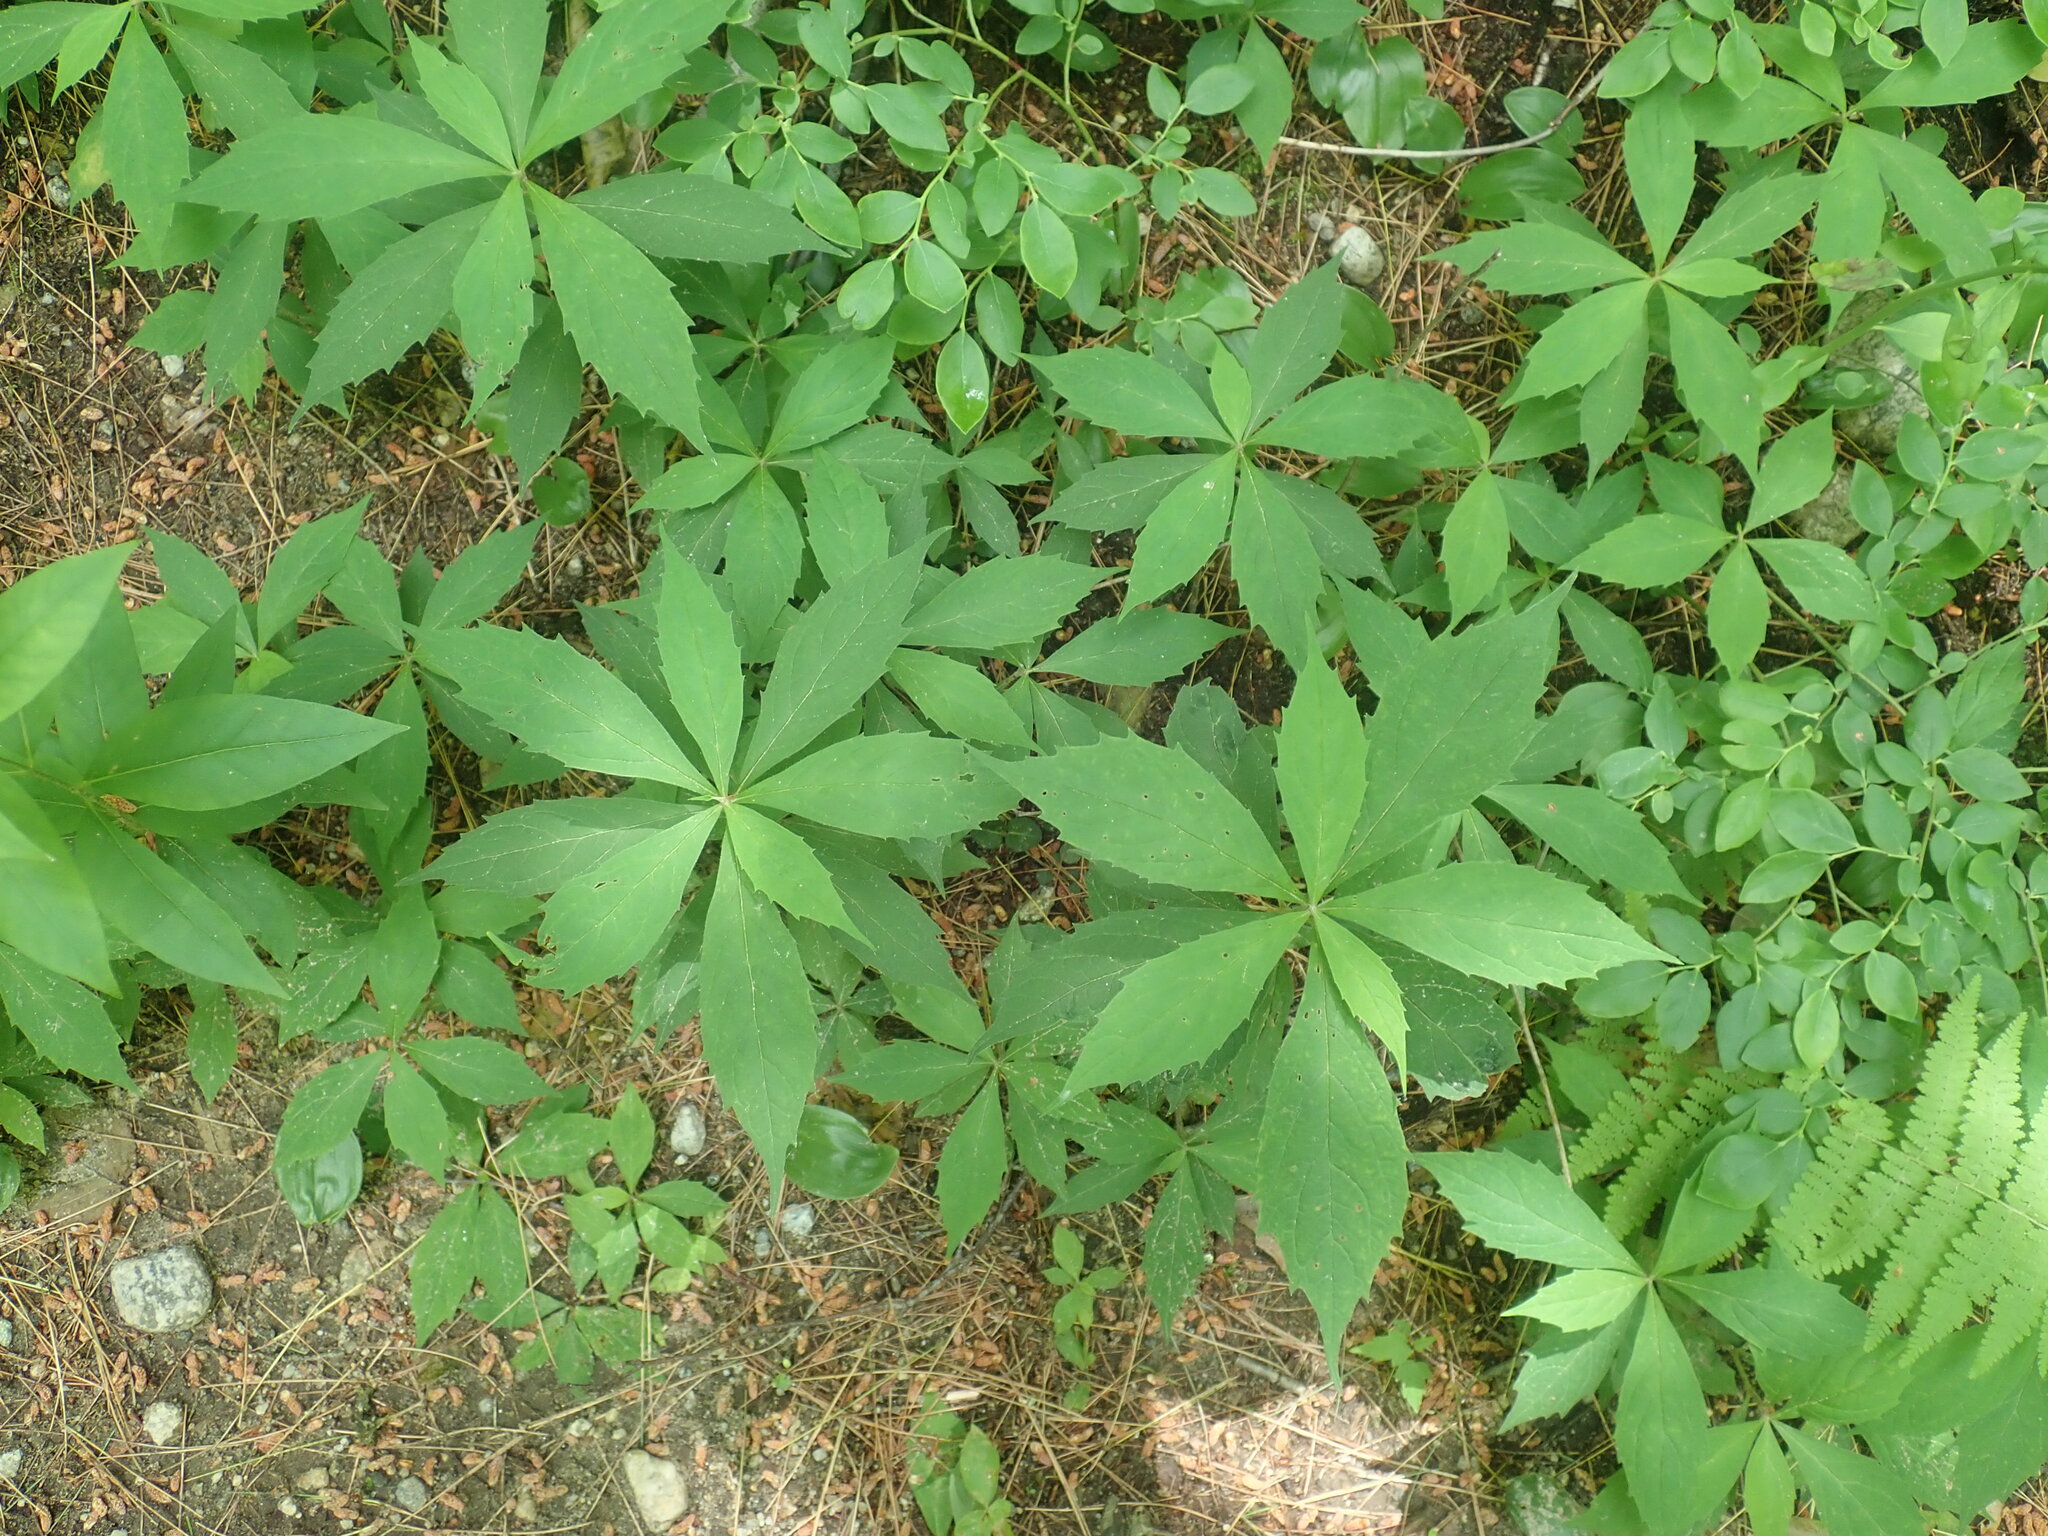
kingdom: Plantae
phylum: Tracheophyta
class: Magnoliopsida
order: Asterales
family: Asteraceae
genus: Oclemena
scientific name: Oclemena acuminata
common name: Mountain aster
